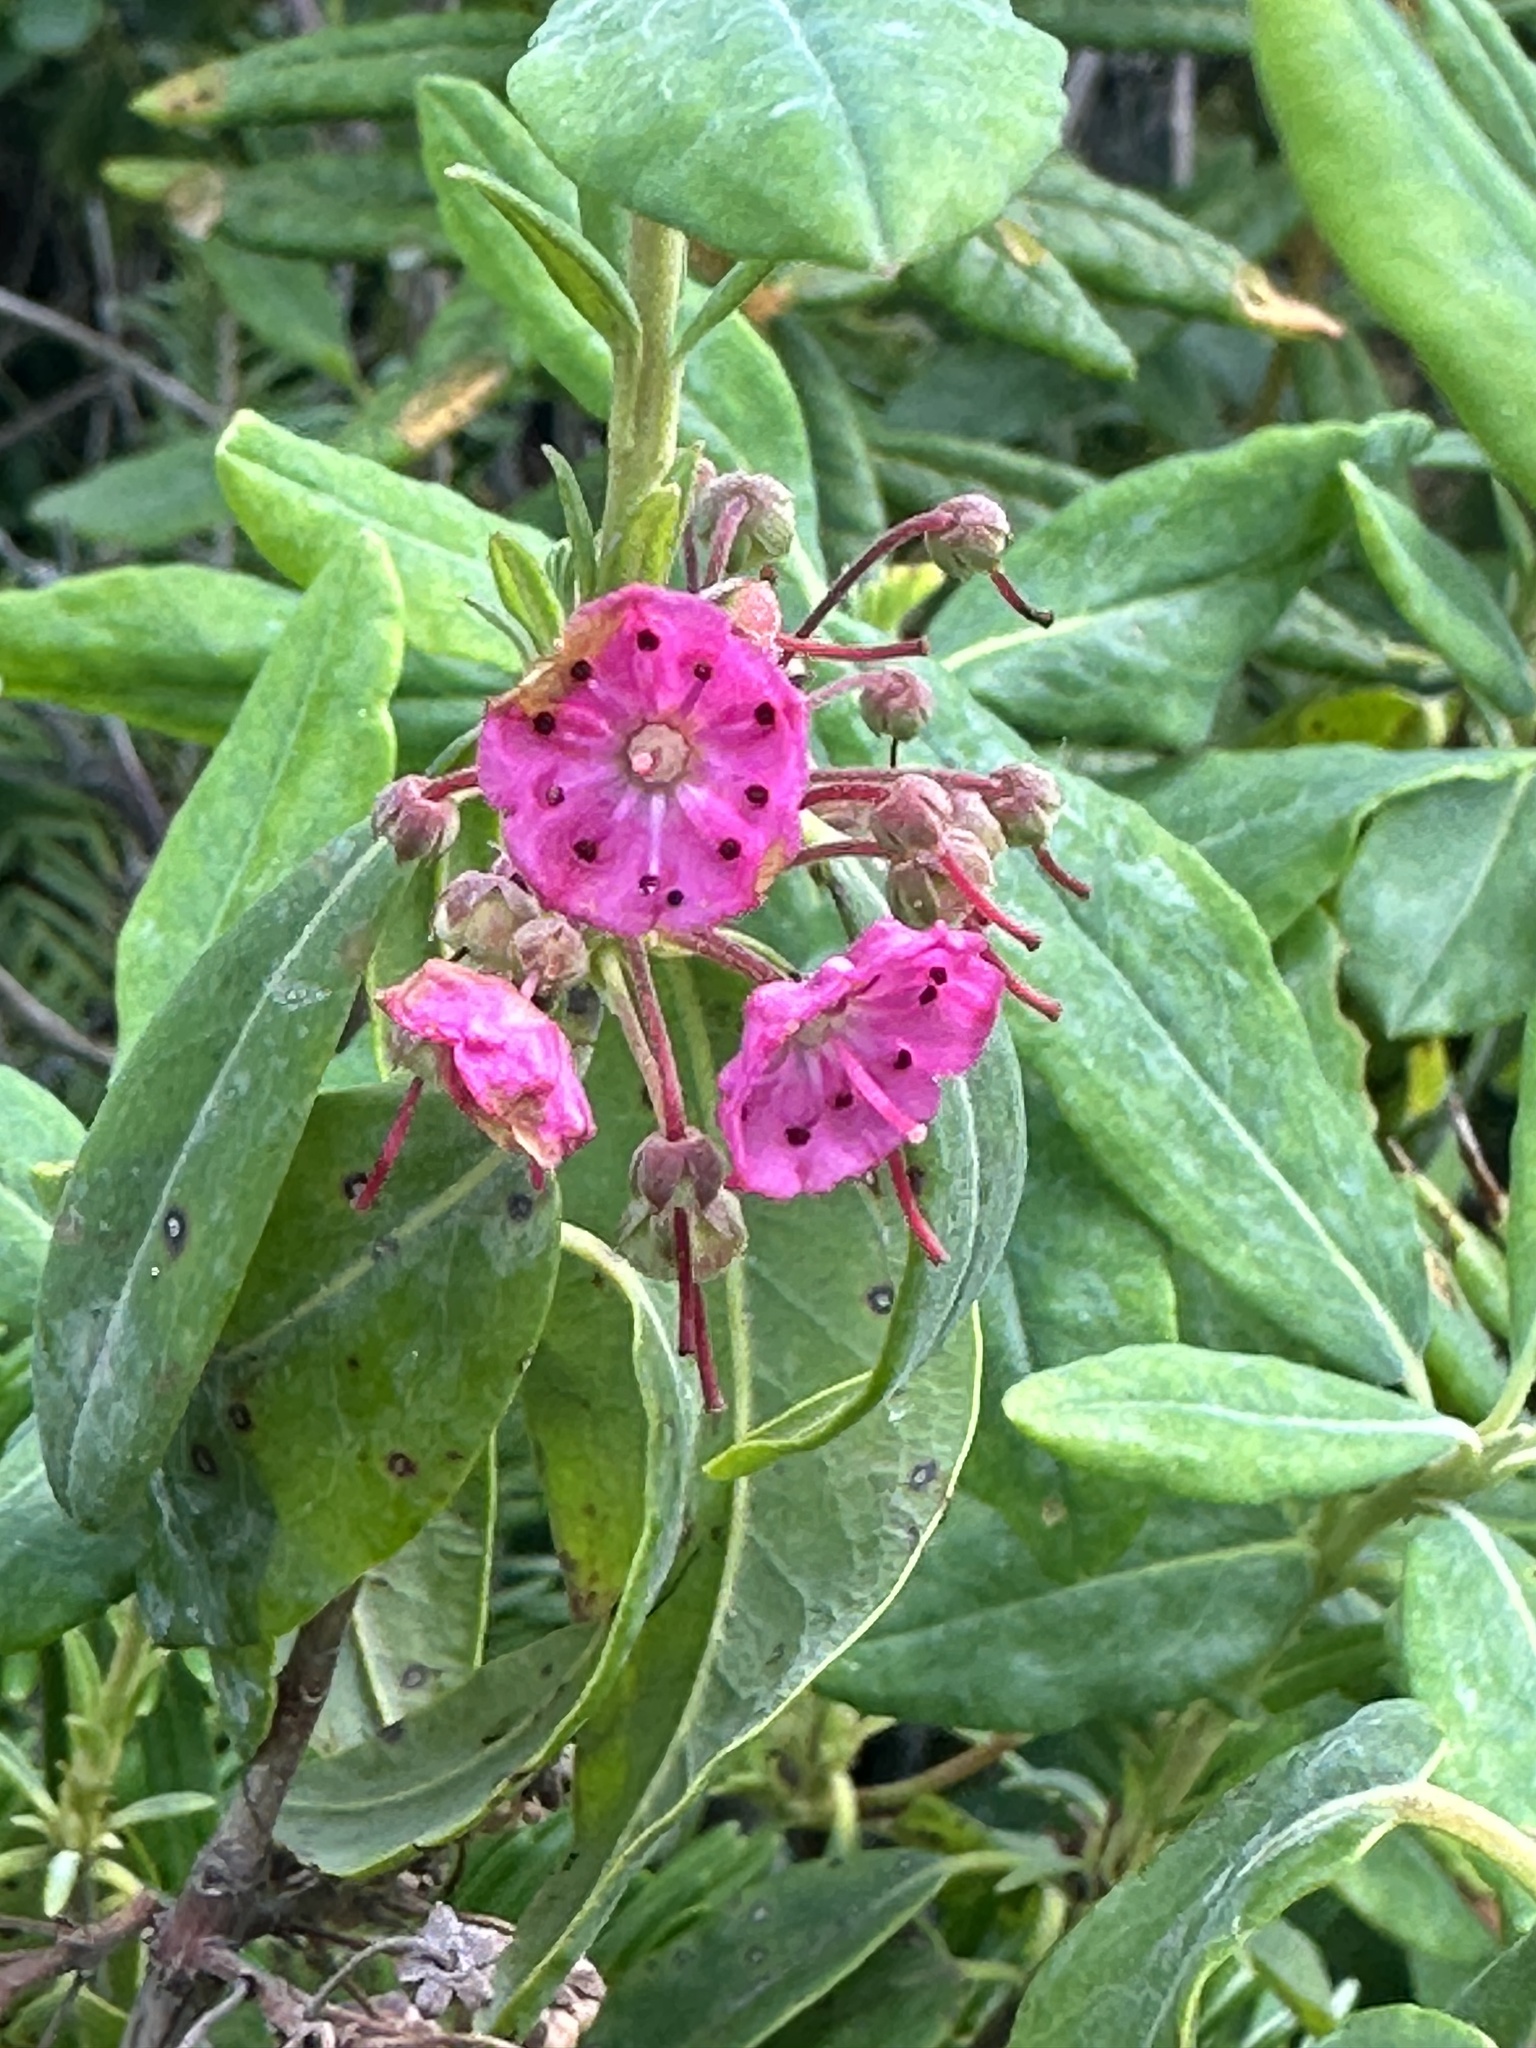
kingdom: Plantae
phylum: Tracheophyta
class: Magnoliopsida
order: Ericales
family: Ericaceae
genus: Kalmia
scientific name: Kalmia angustifolia
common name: Sheep-laurel
